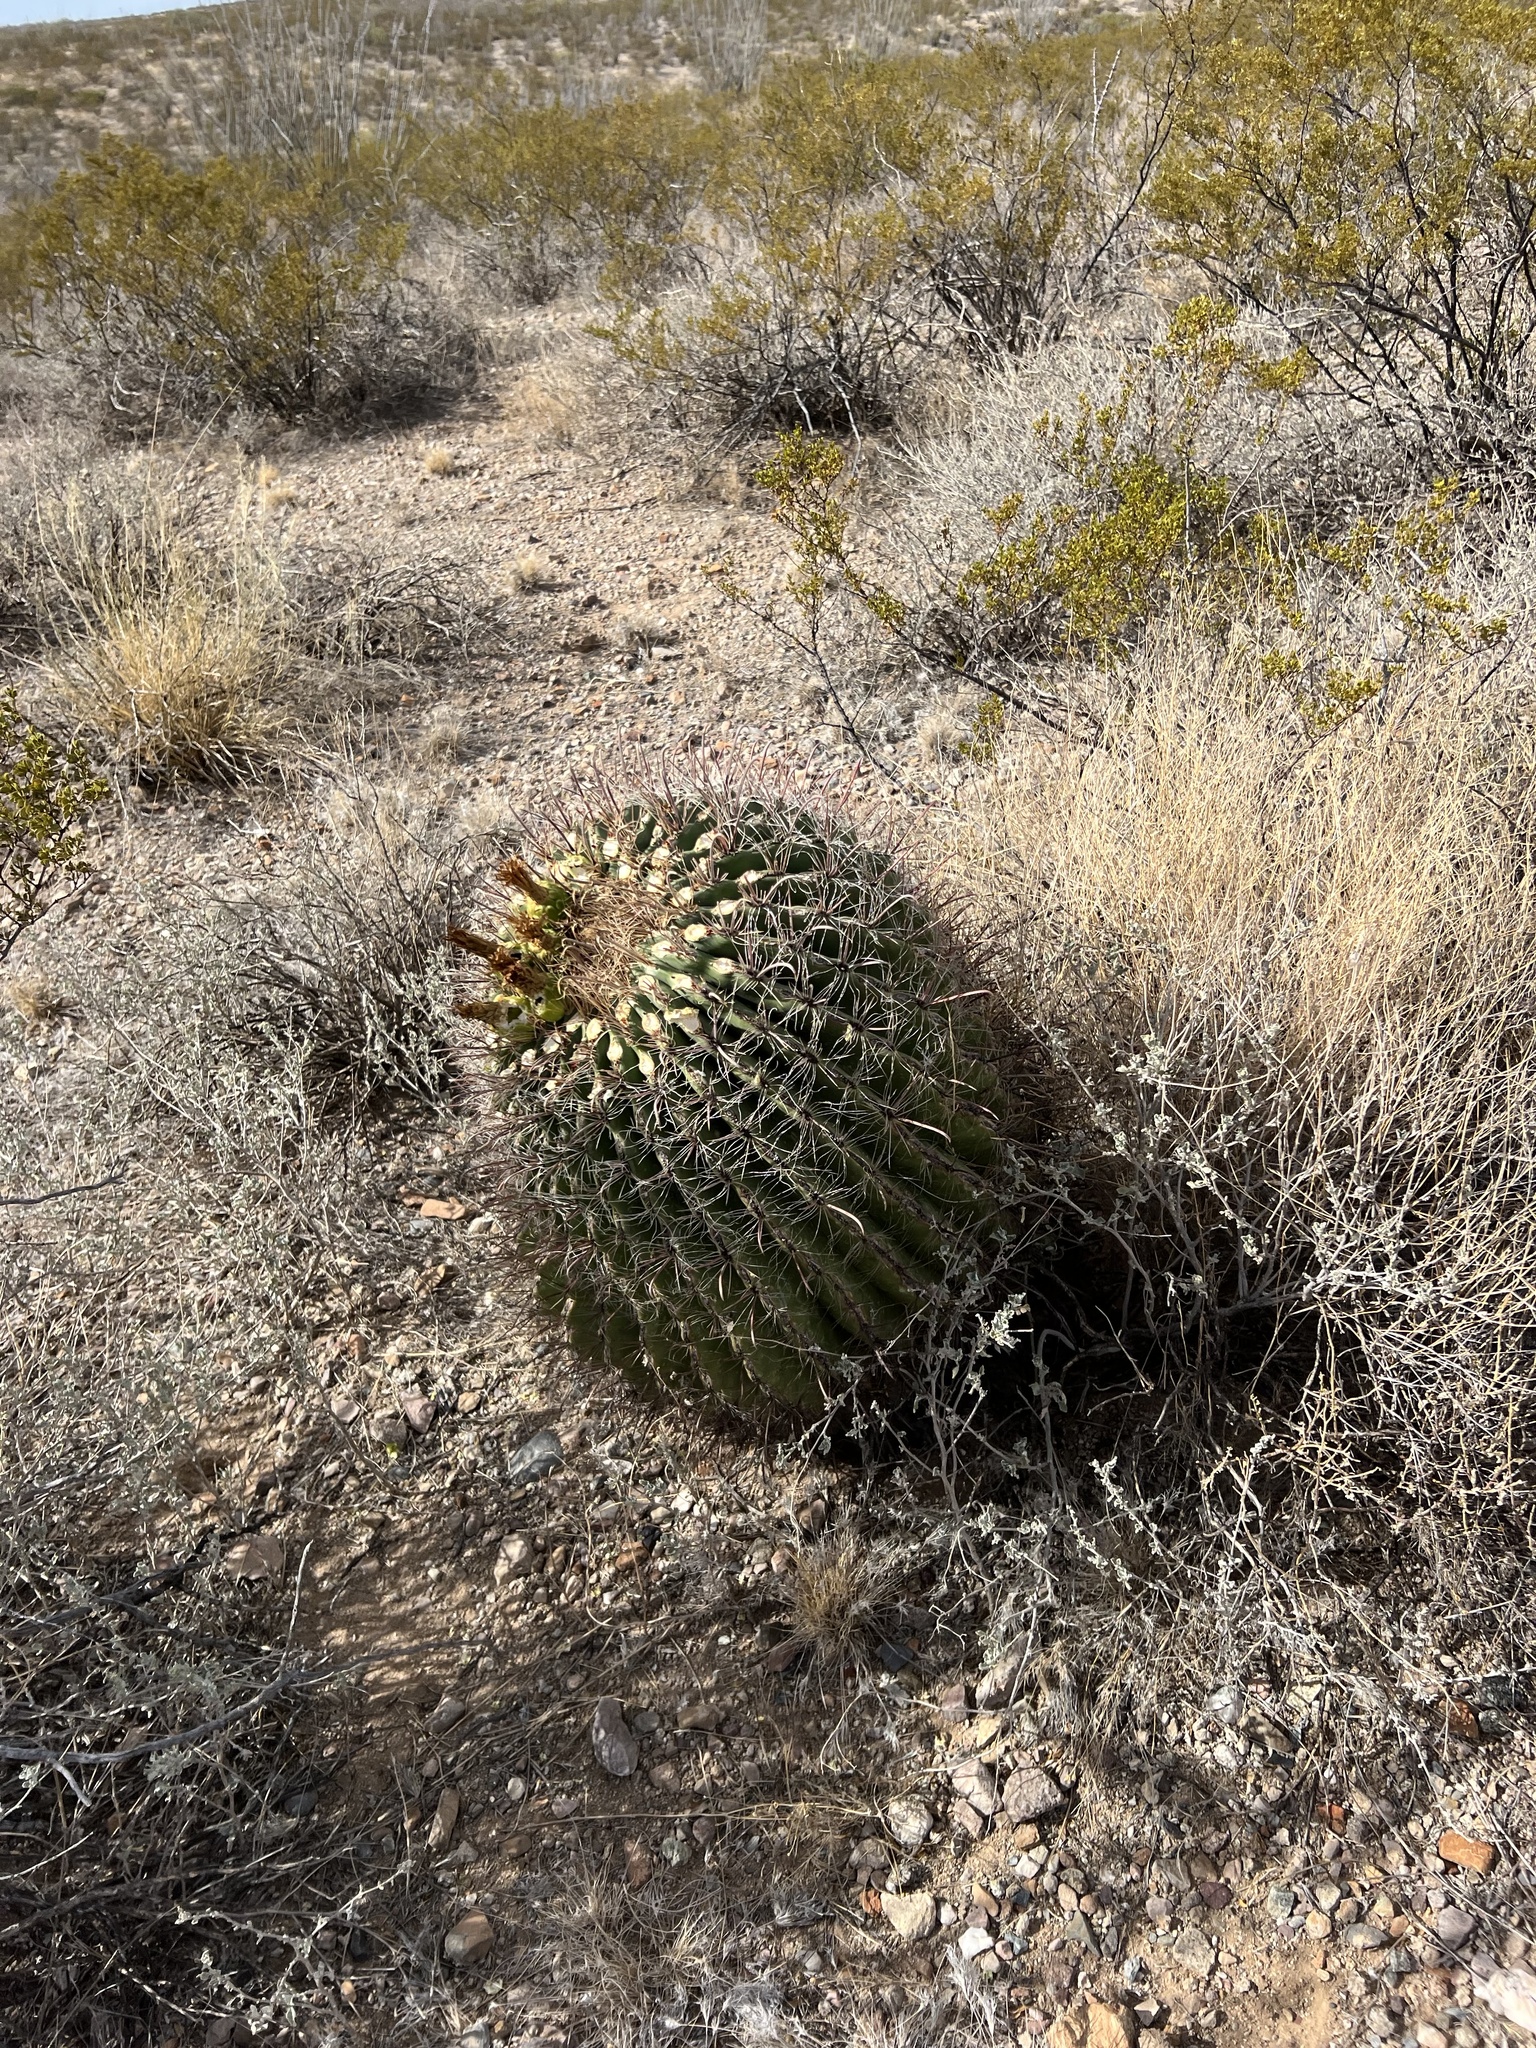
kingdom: Plantae
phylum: Tracheophyta
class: Magnoliopsida
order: Caryophyllales
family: Cactaceae
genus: Ferocactus
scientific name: Ferocactus wislizeni
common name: Candy barrel cactus
